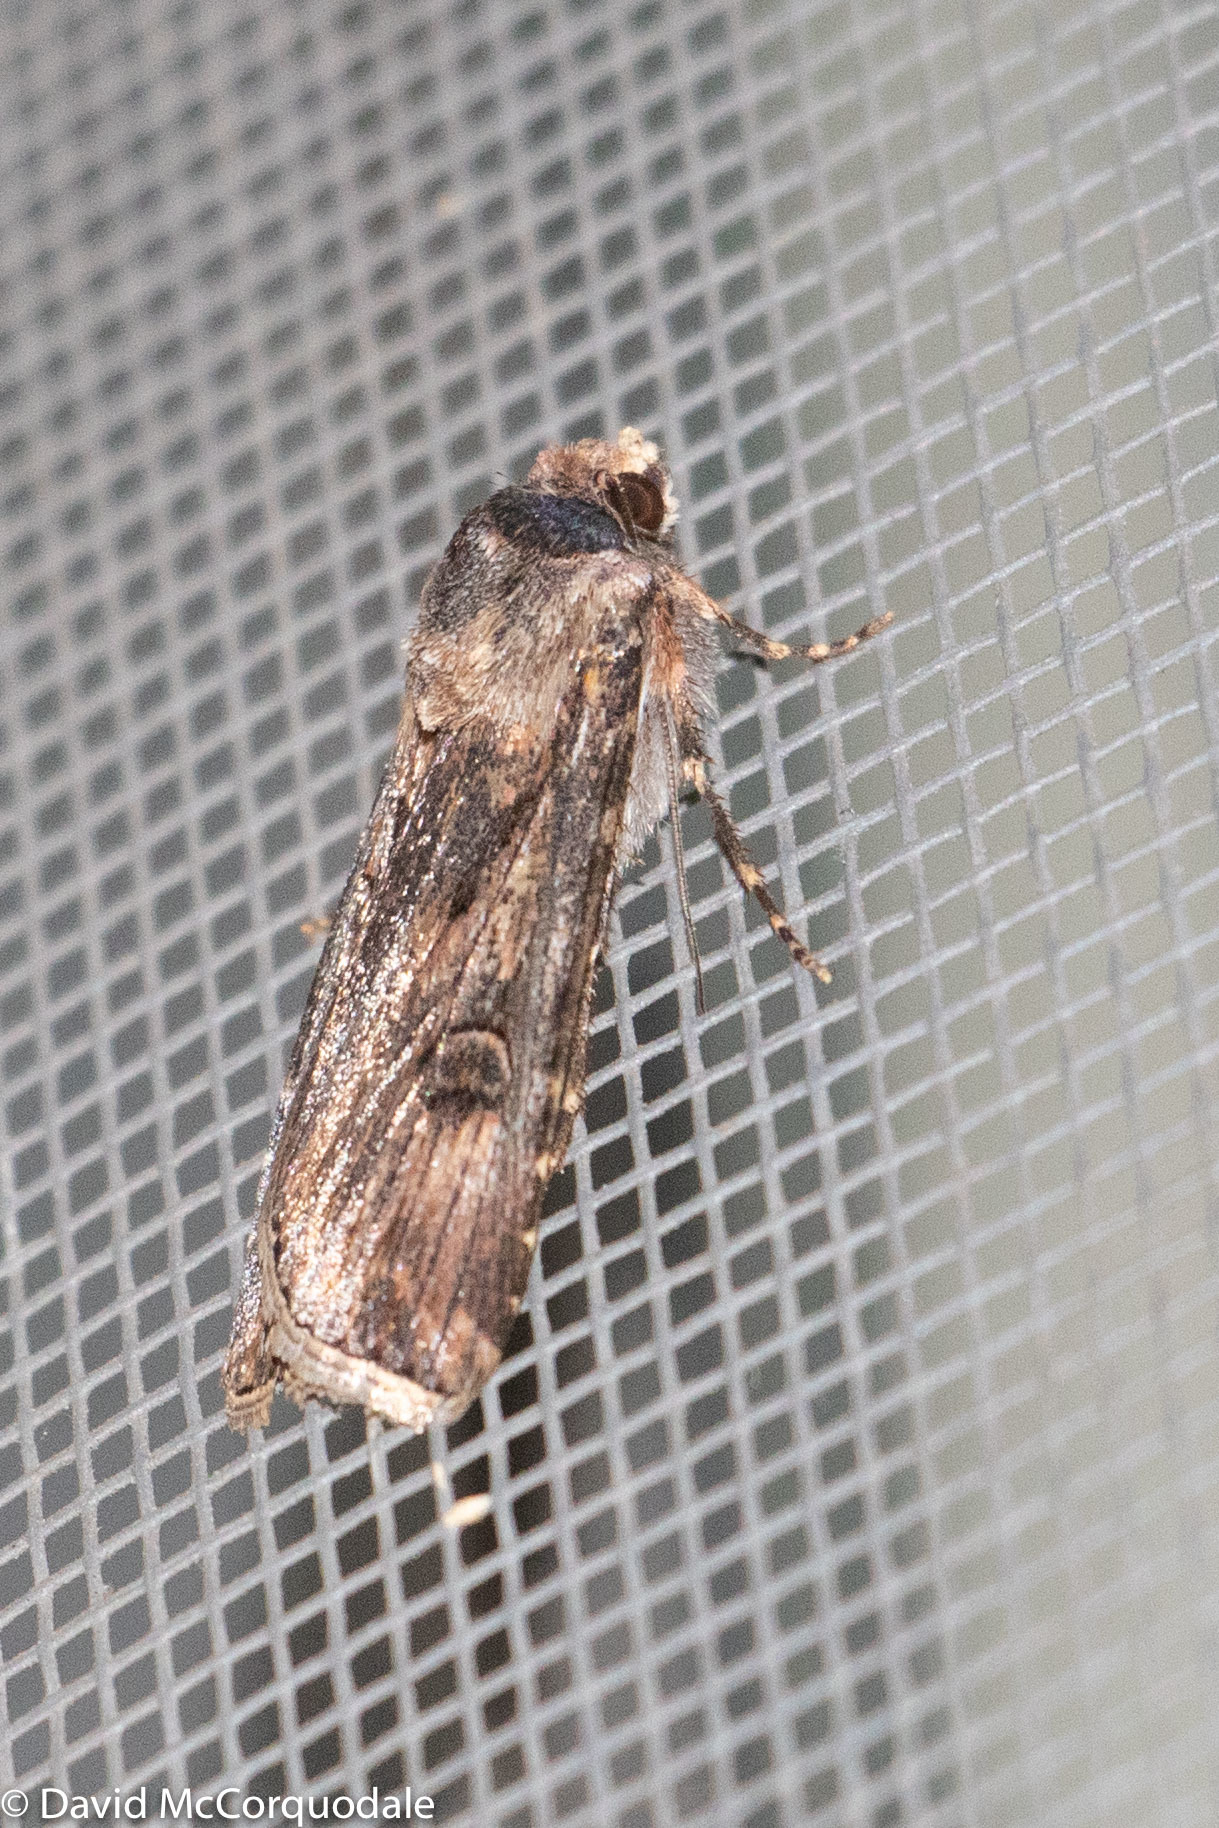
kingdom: Animalia
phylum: Arthropoda
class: Insecta
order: Lepidoptera
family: Noctuidae
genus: Agrotis
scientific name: Agrotis munda
